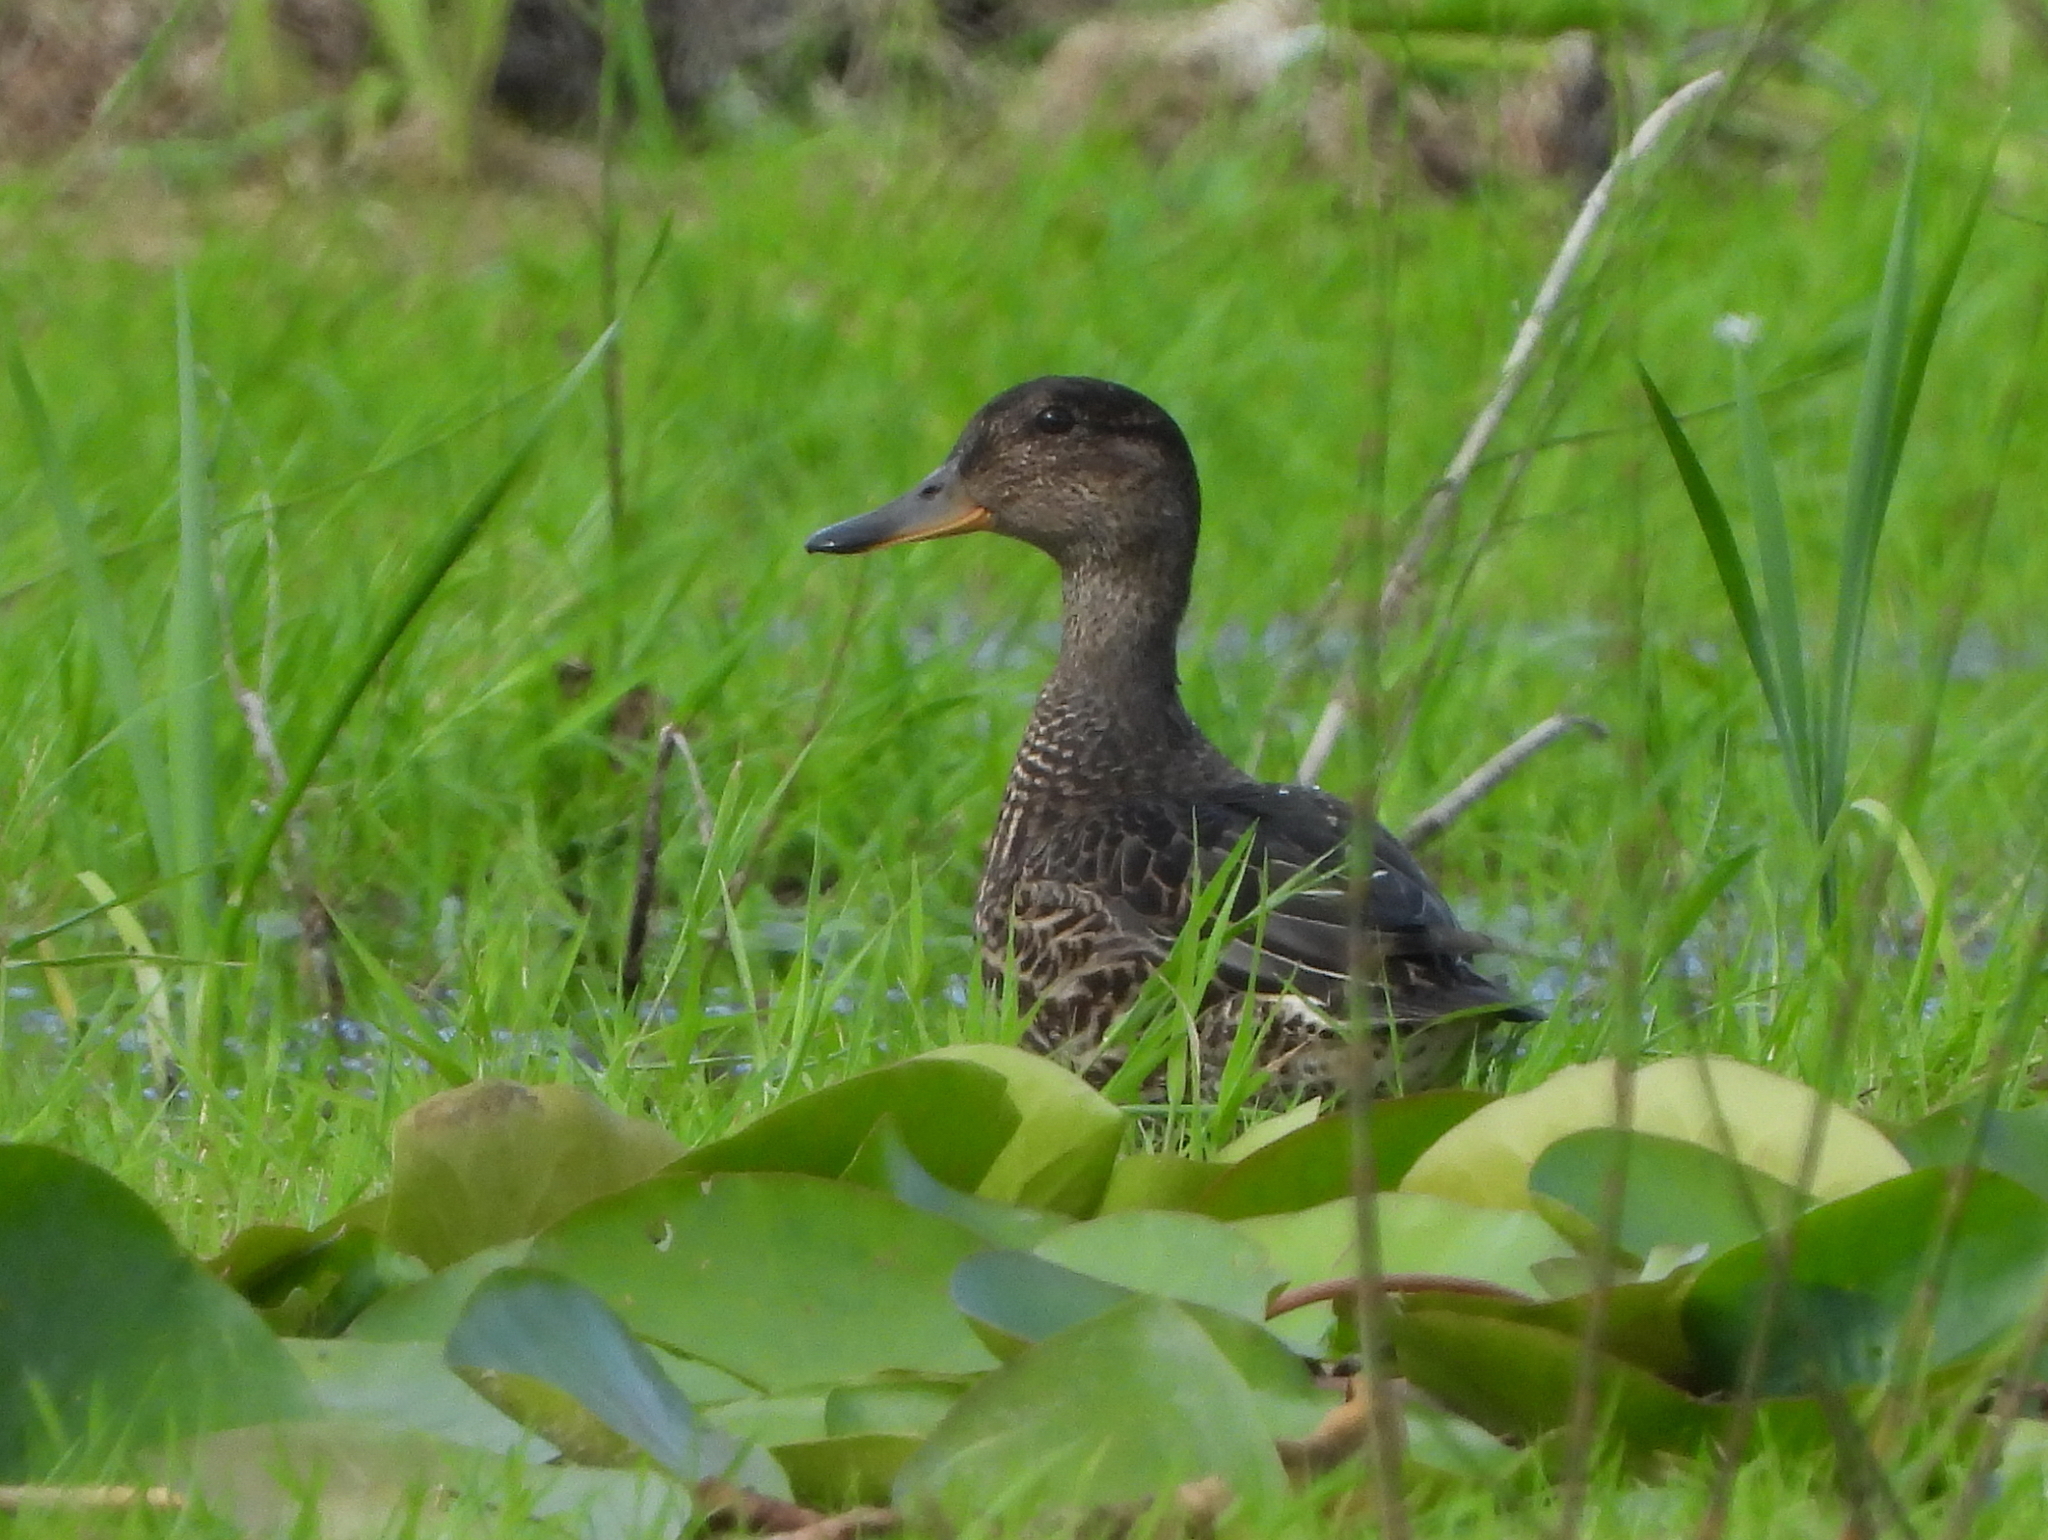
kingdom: Animalia
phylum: Chordata
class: Aves
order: Anseriformes
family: Anatidae
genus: Anas
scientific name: Anas crecca
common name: Eurasian teal
